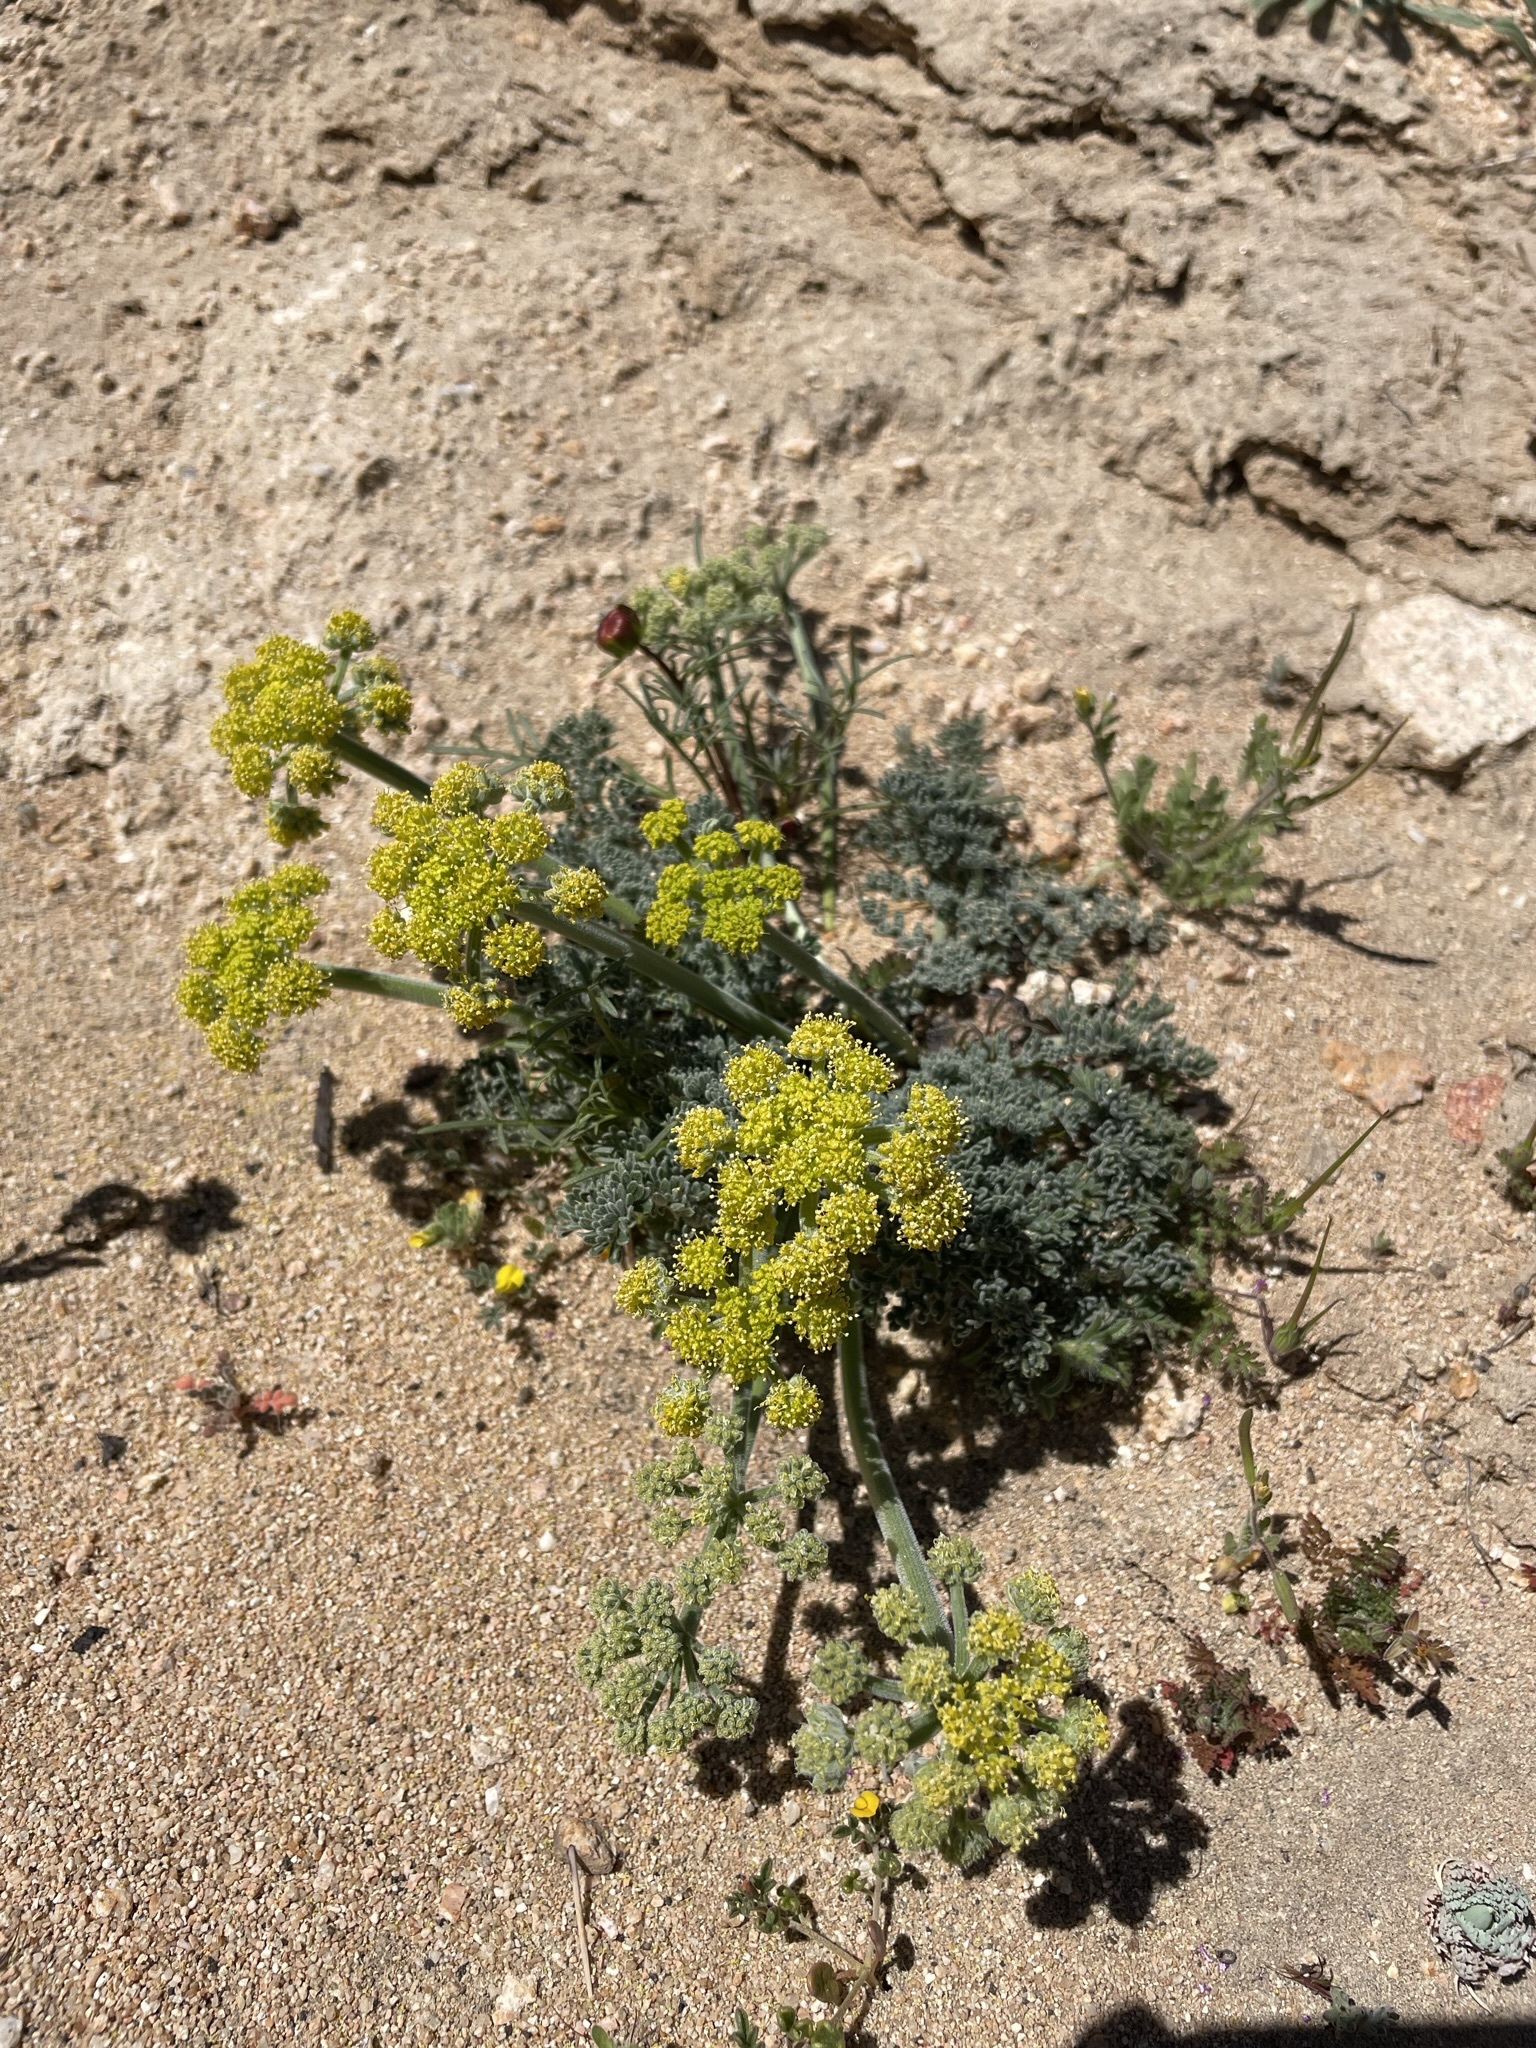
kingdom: Plantae
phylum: Tracheophyta
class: Magnoliopsida
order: Apiales
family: Apiaceae
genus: Lomatium
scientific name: Lomatium mohavense
